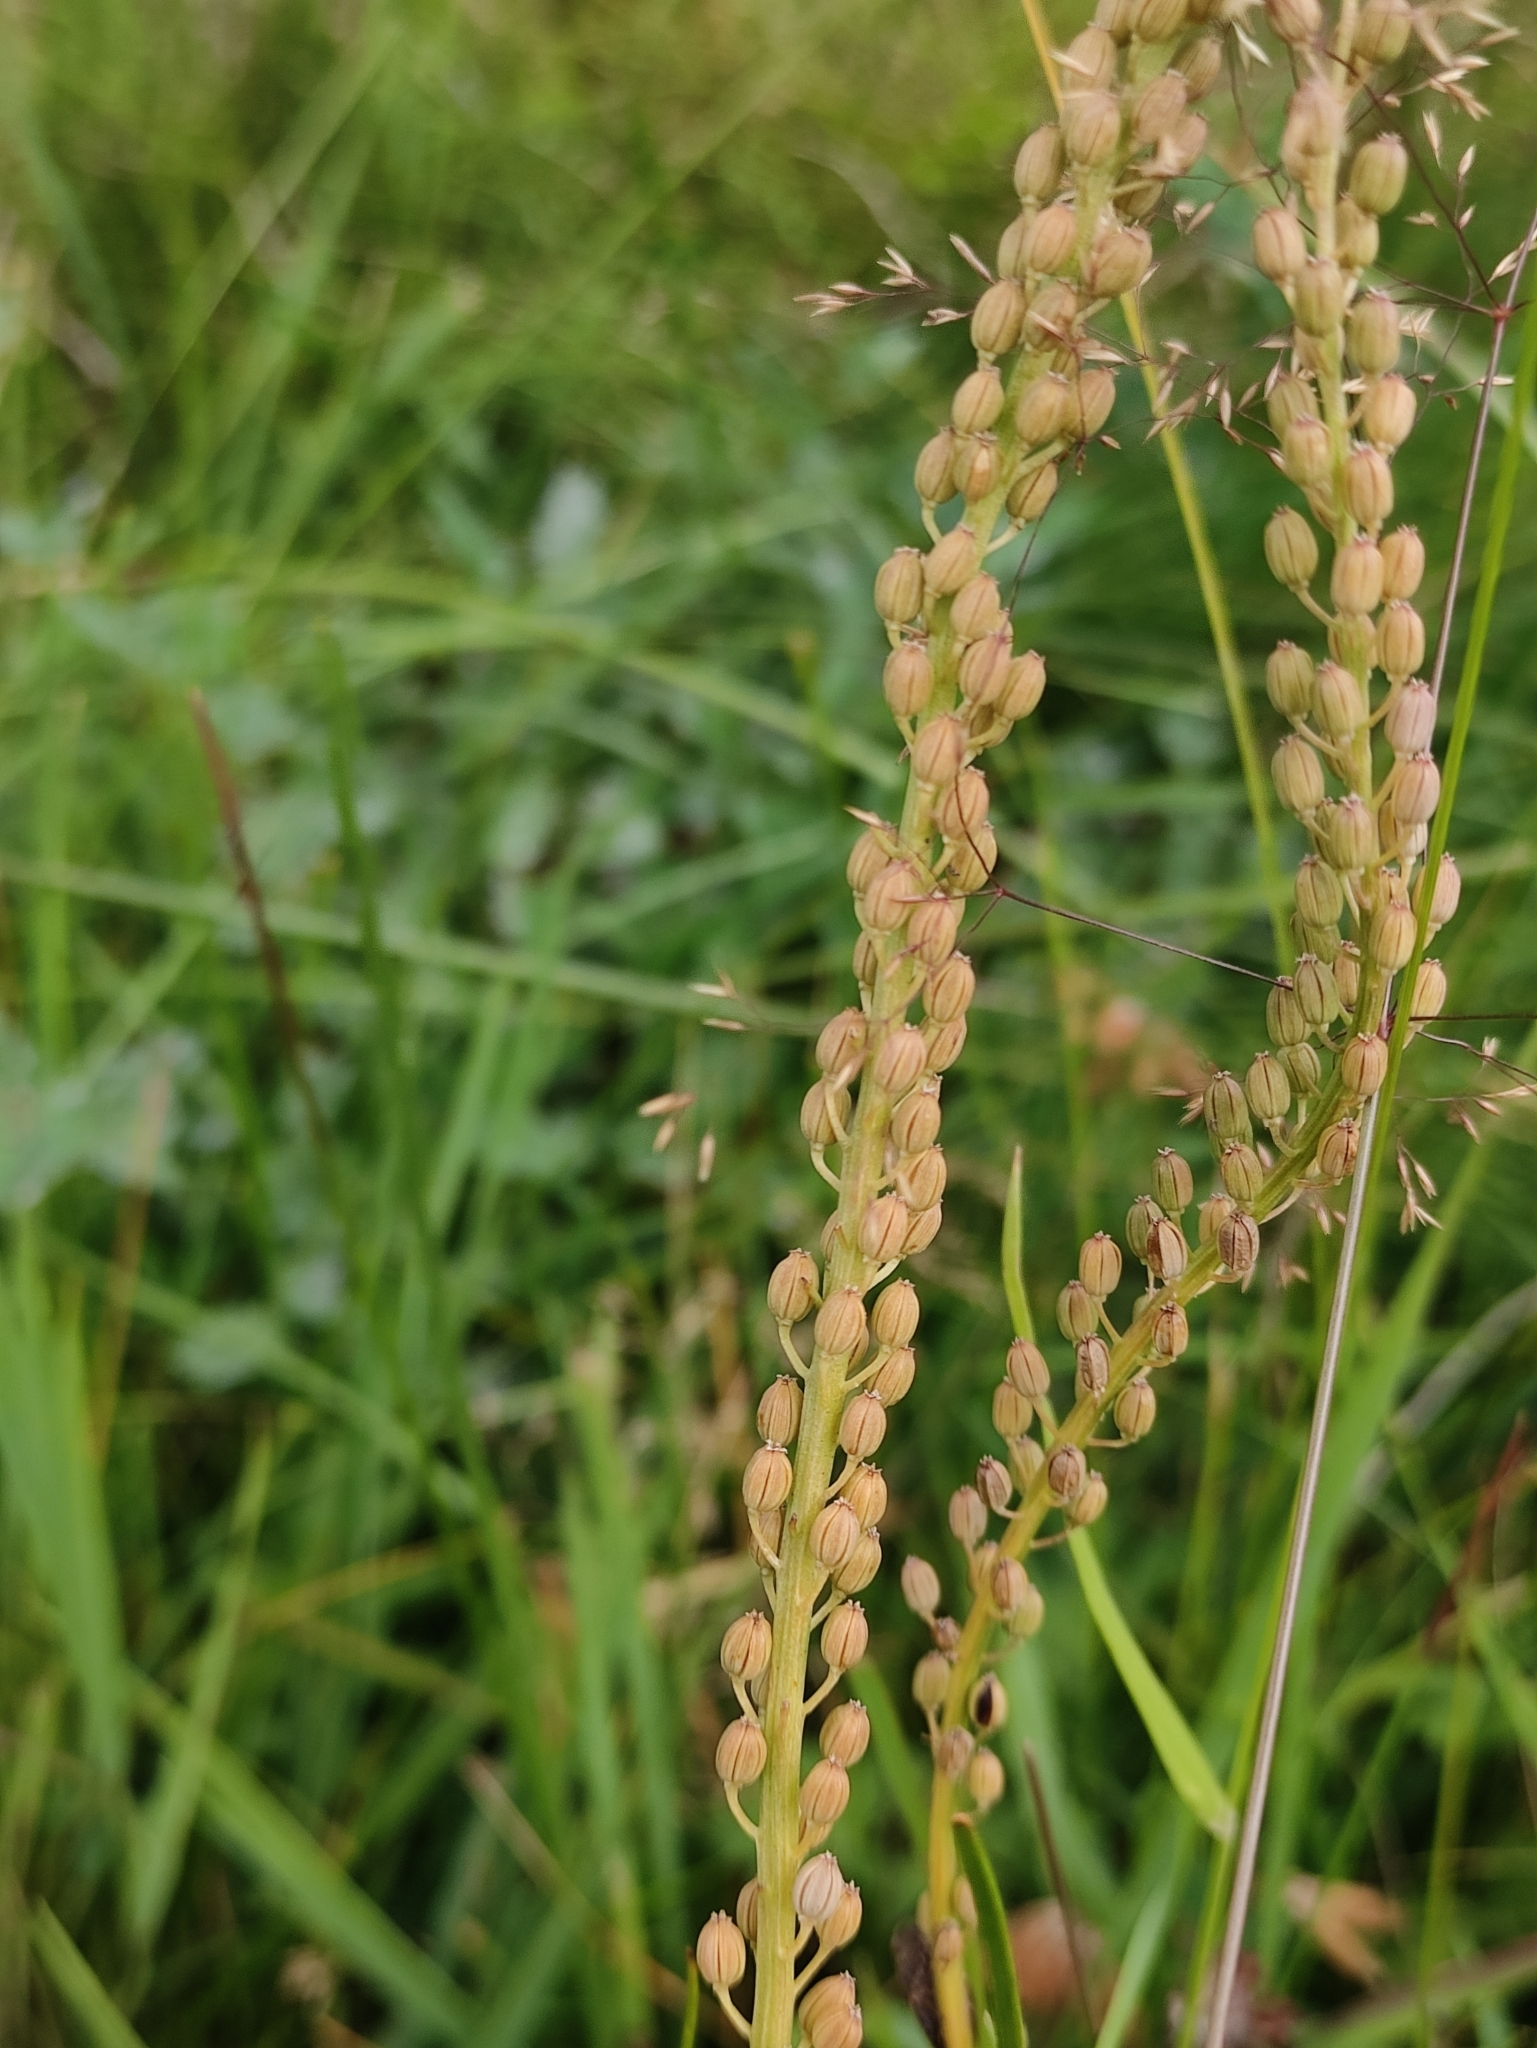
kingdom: Plantae
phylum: Tracheophyta
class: Liliopsida
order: Alismatales
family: Juncaginaceae
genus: Triglochin
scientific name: Triglochin maritima
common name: Sea arrowgrass
